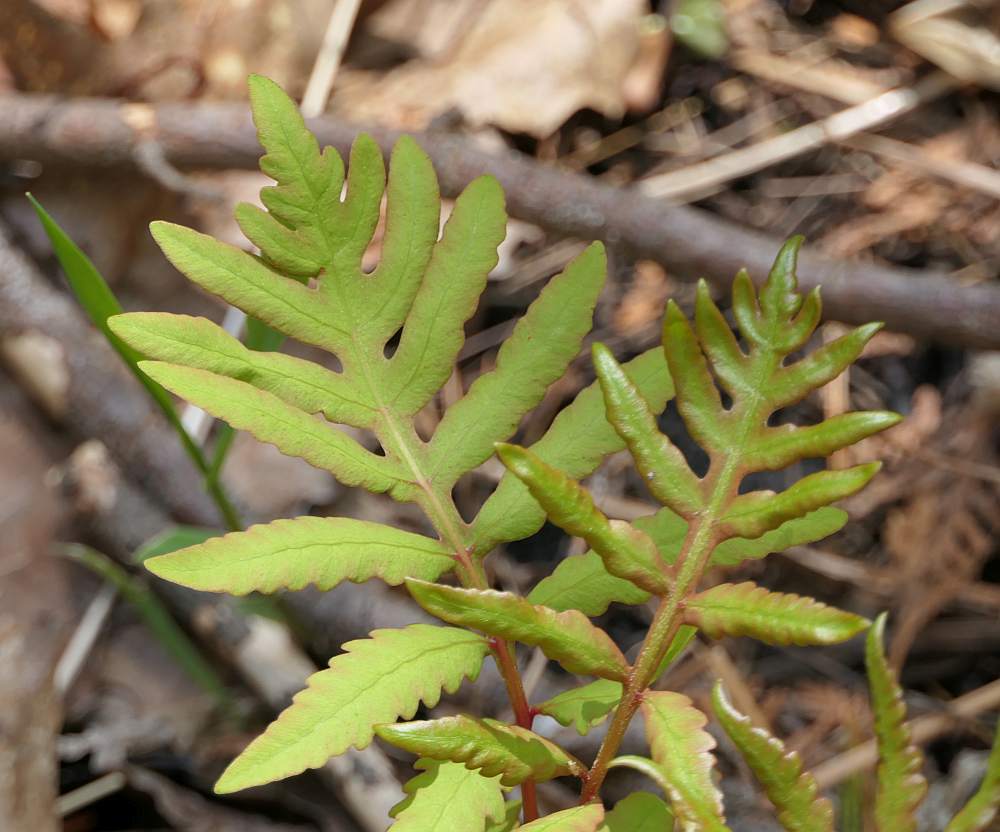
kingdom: Plantae
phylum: Tracheophyta
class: Polypodiopsida
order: Polypodiales
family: Onocleaceae
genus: Onoclea
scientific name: Onoclea sensibilis
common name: Sensitive fern
